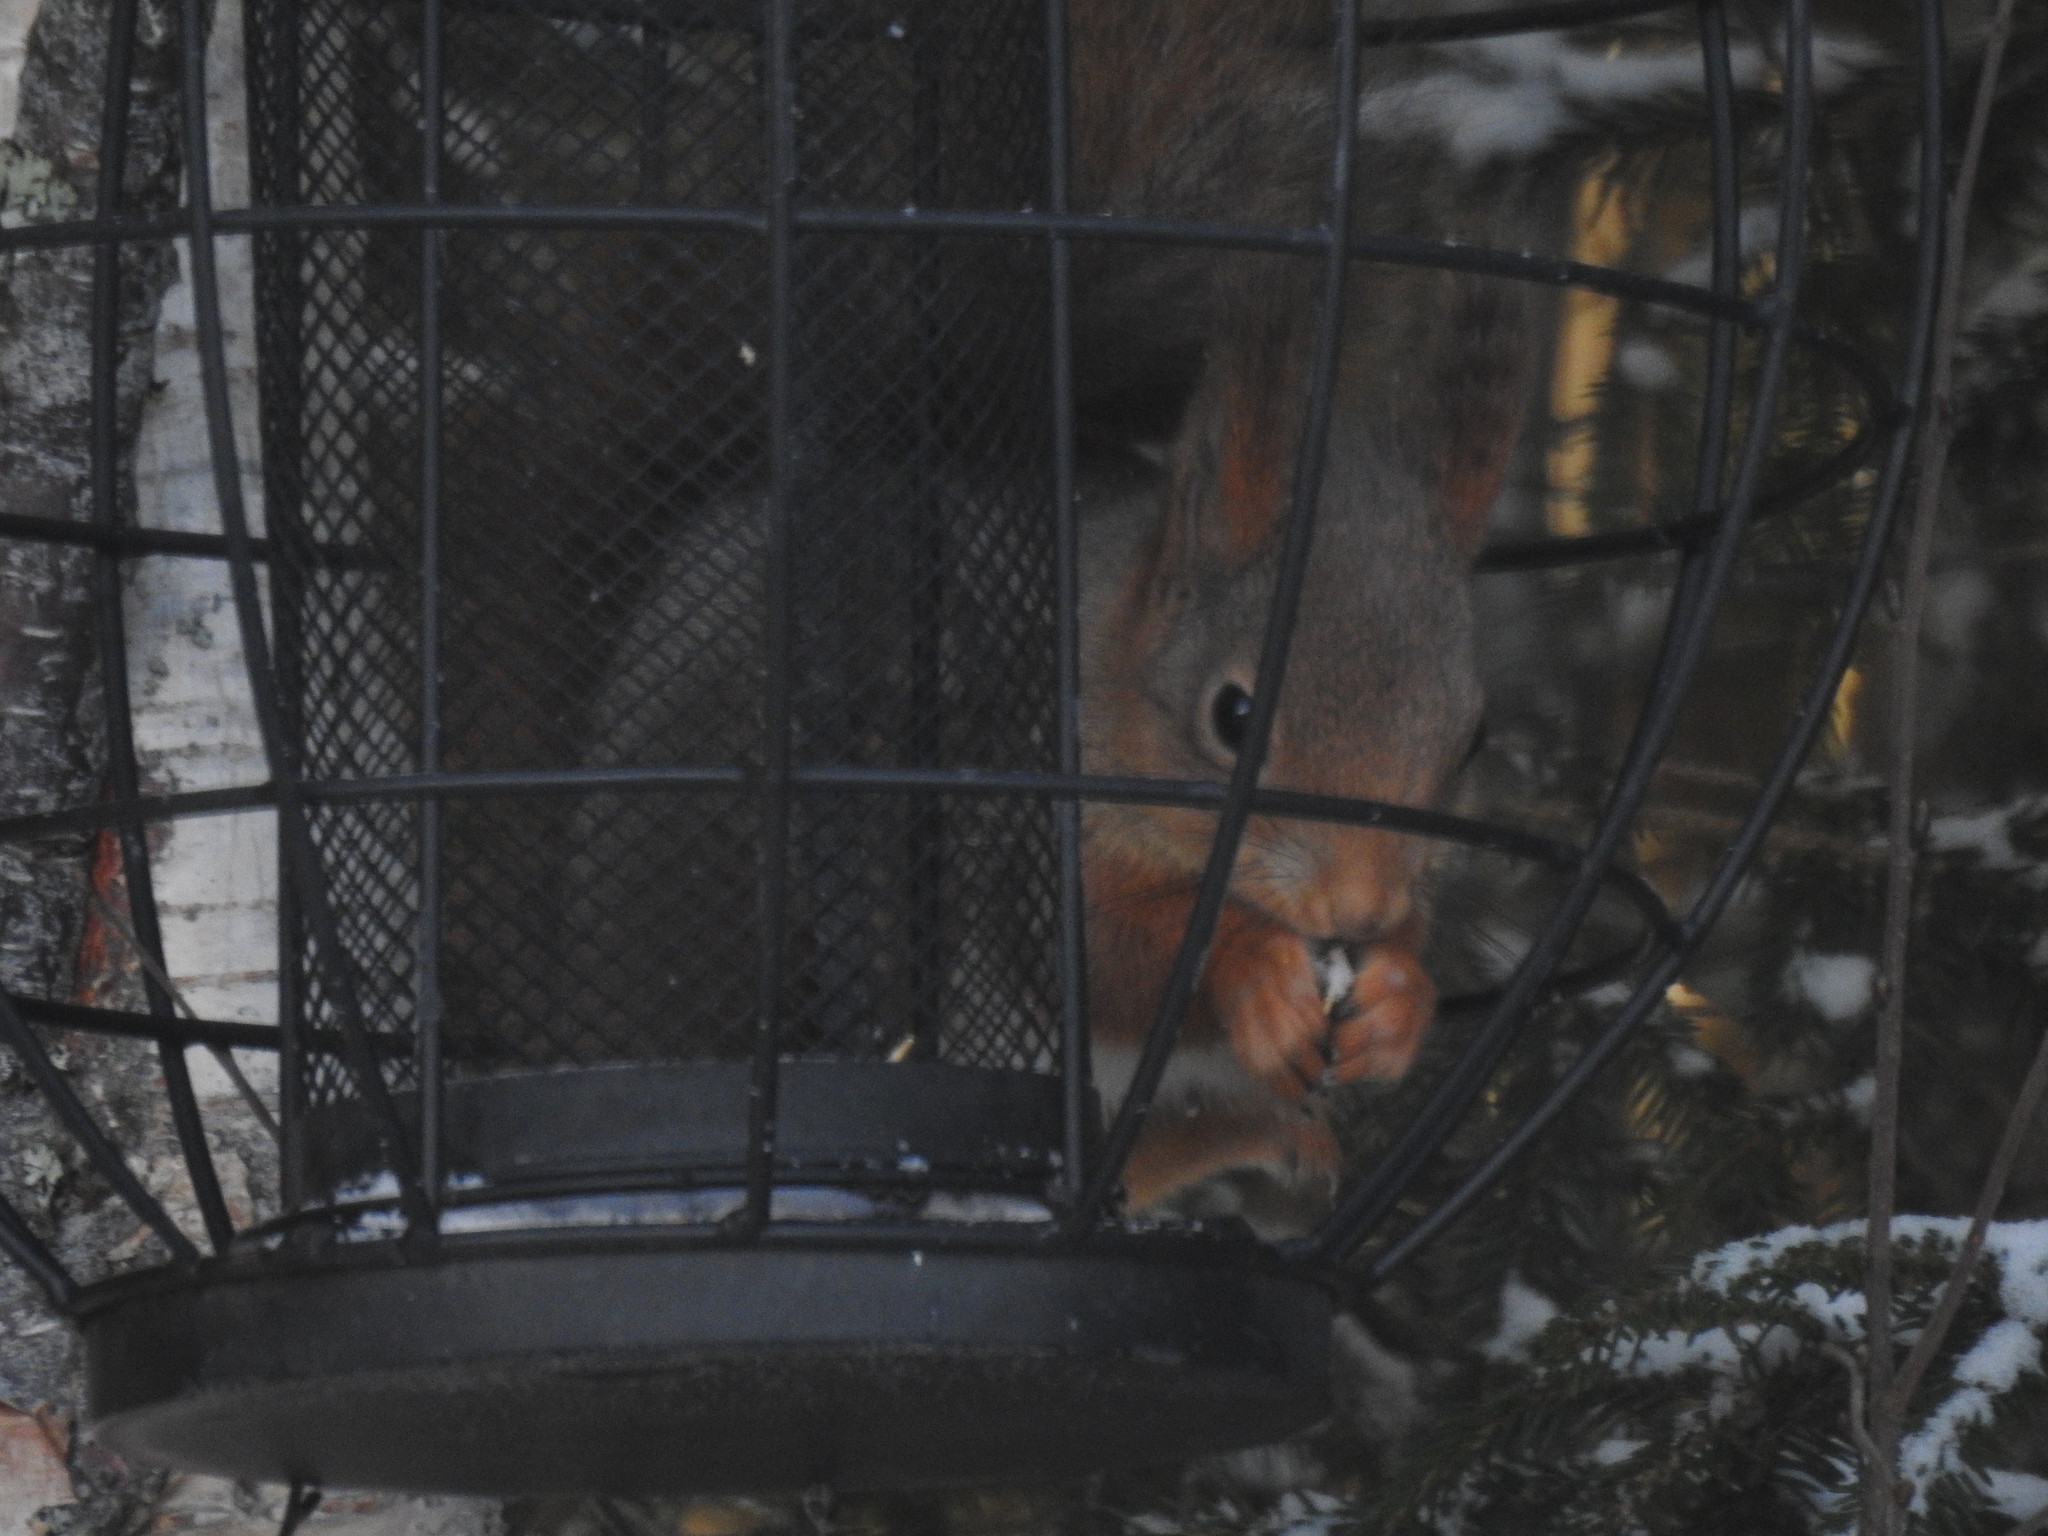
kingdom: Animalia
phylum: Chordata
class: Mammalia
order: Rodentia
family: Sciuridae
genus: Sciurus
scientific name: Sciurus vulgaris
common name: Eurasian red squirrel
